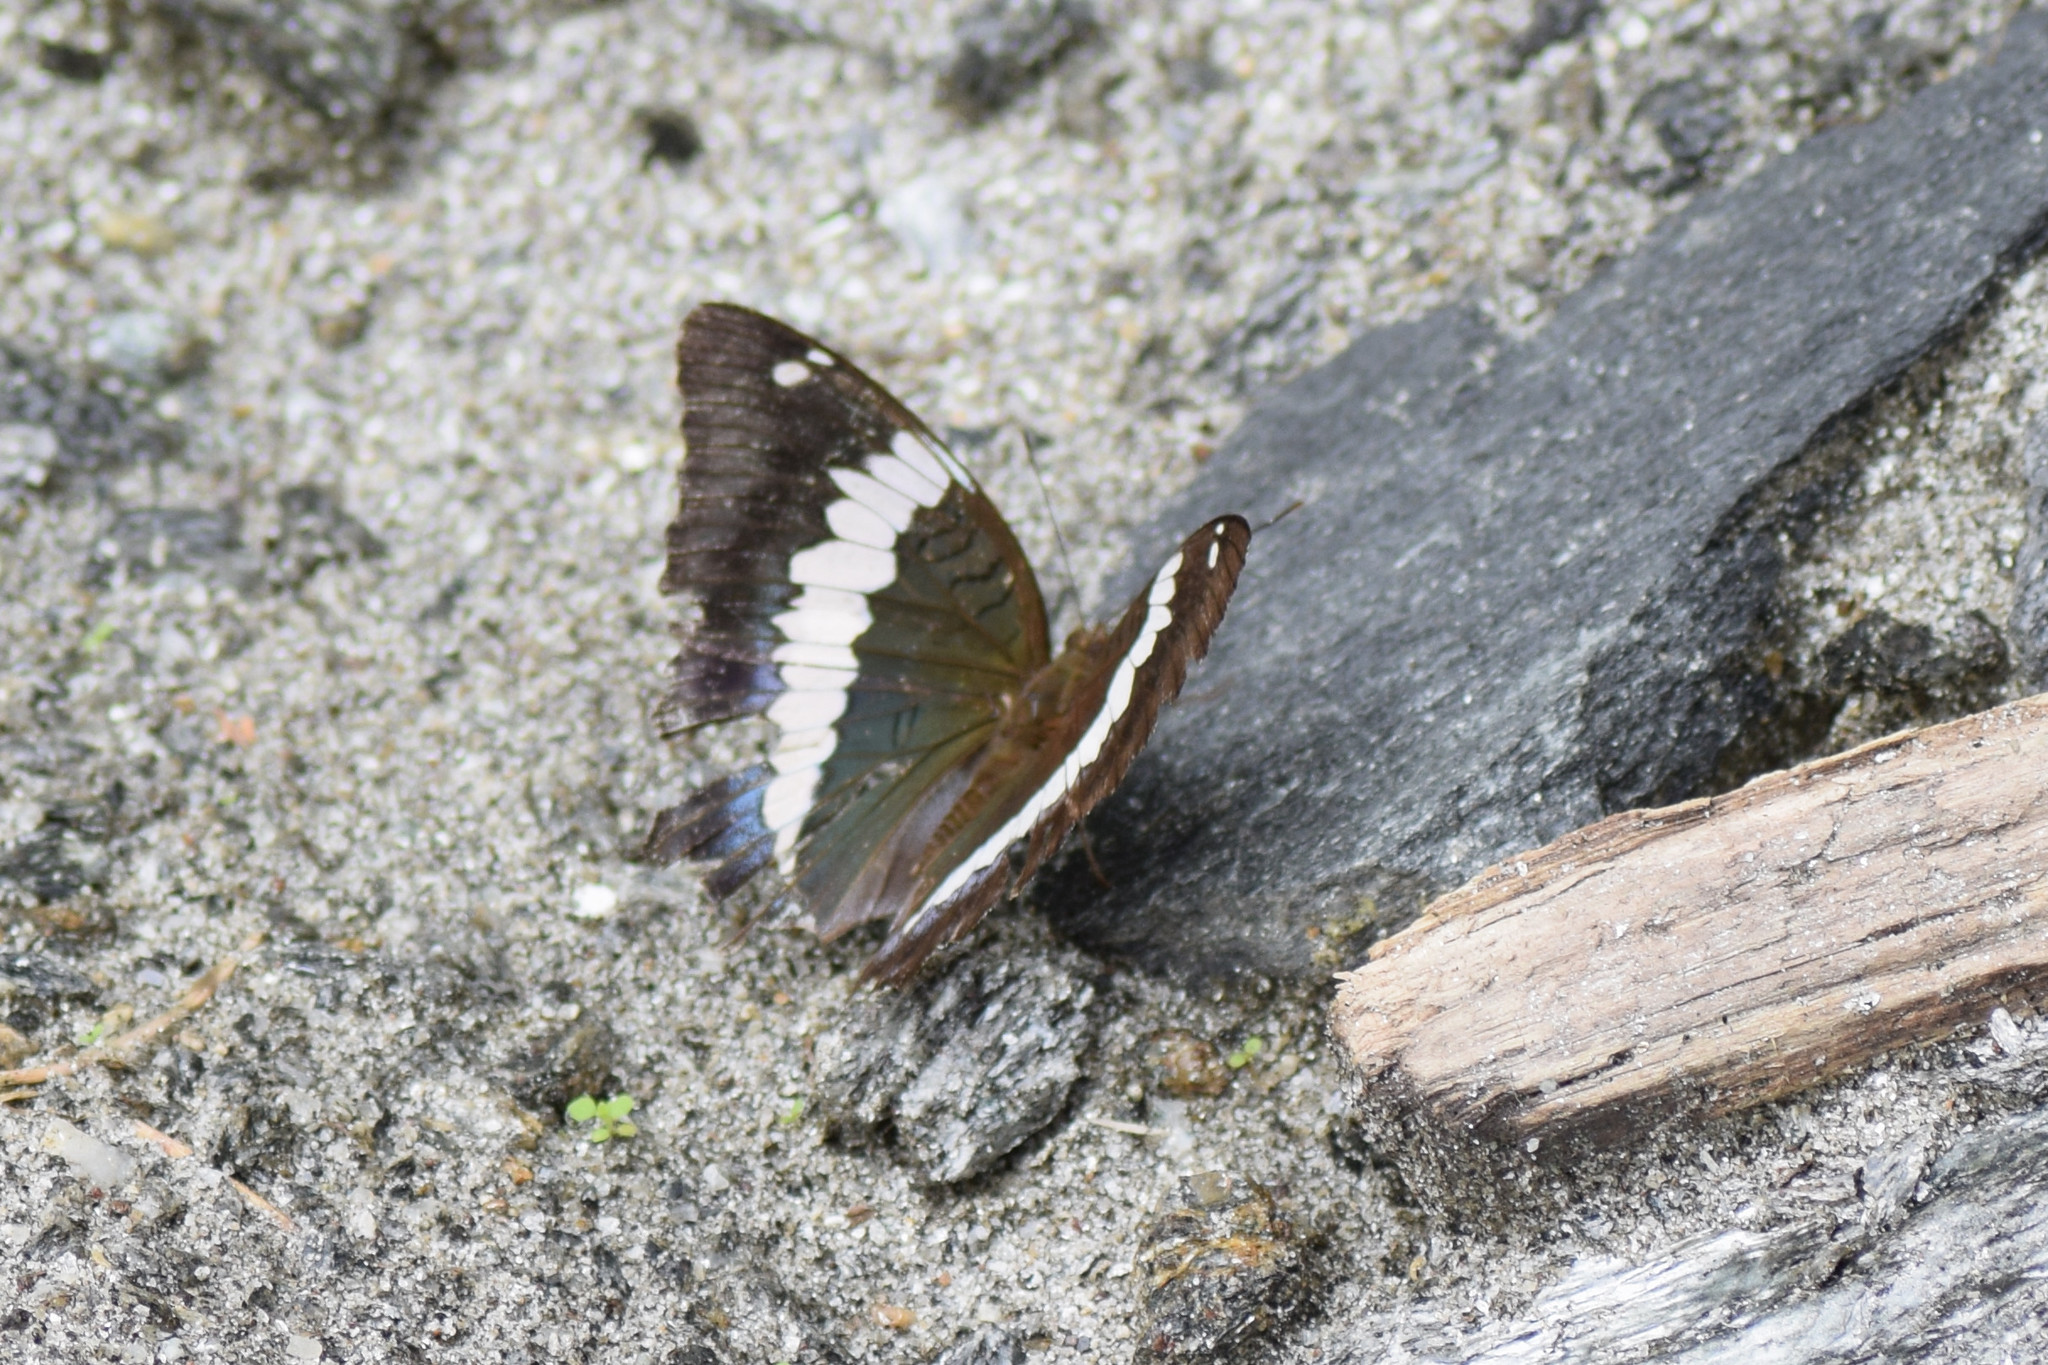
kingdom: Animalia
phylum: Arthropoda
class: Insecta
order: Lepidoptera
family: Nymphalidae
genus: Euthalia
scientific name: Euthalia durga
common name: Blue duke
